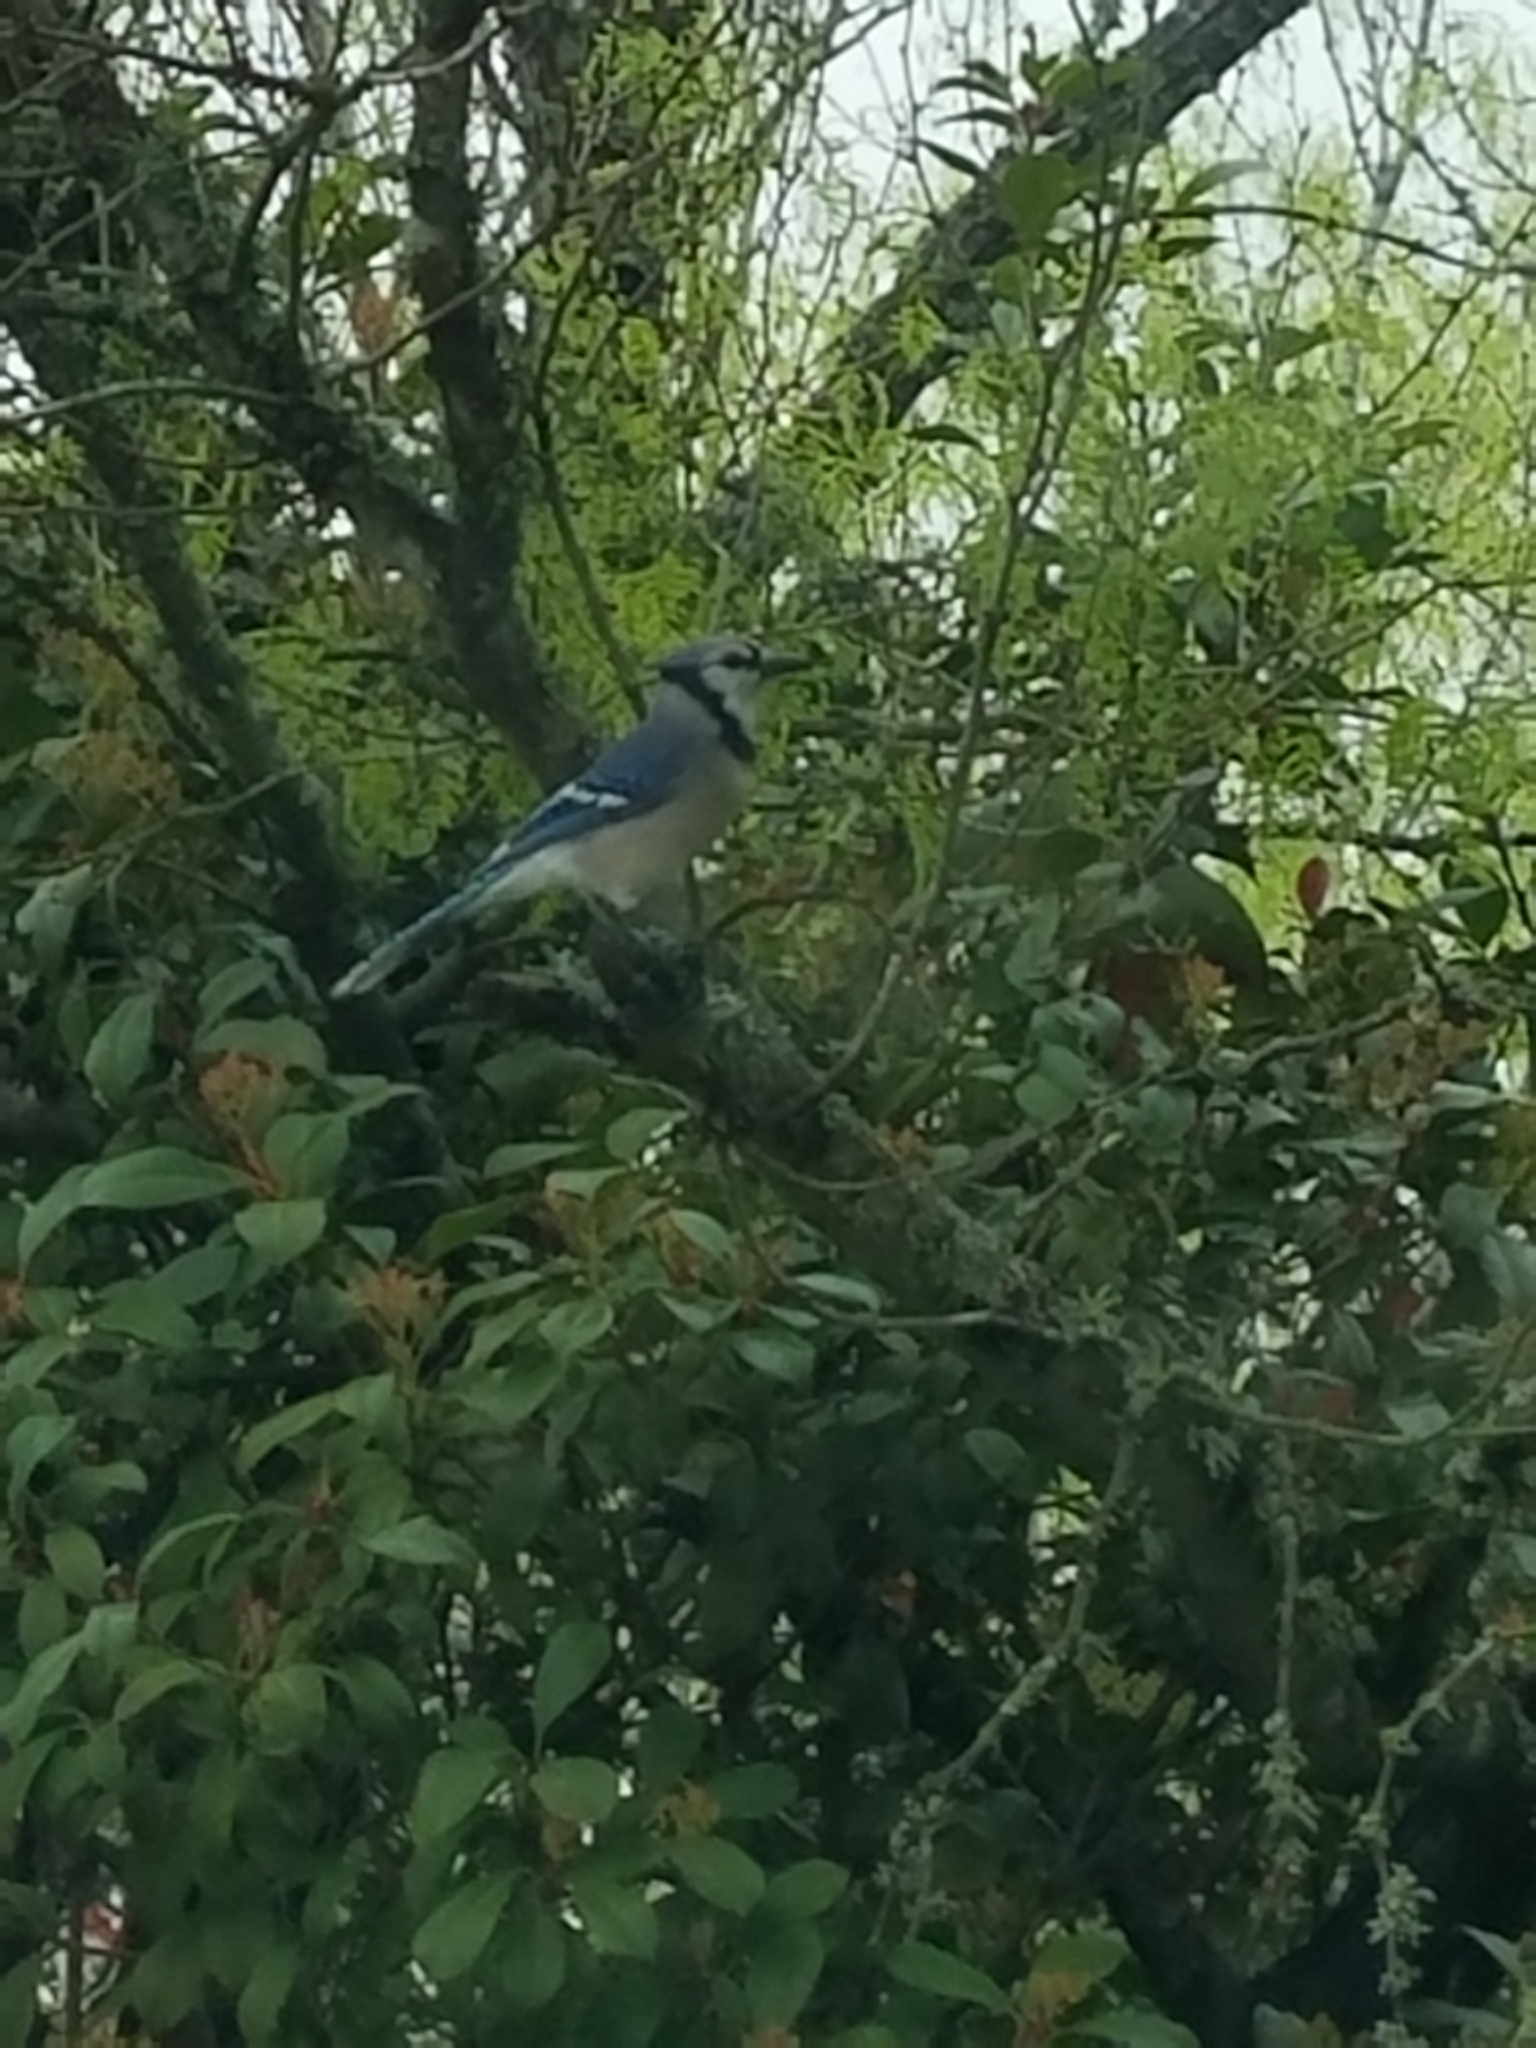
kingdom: Animalia
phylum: Chordata
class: Aves
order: Passeriformes
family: Corvidae
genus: Cyanocitta
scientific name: Cyanocitta cristata
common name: Blue jay
